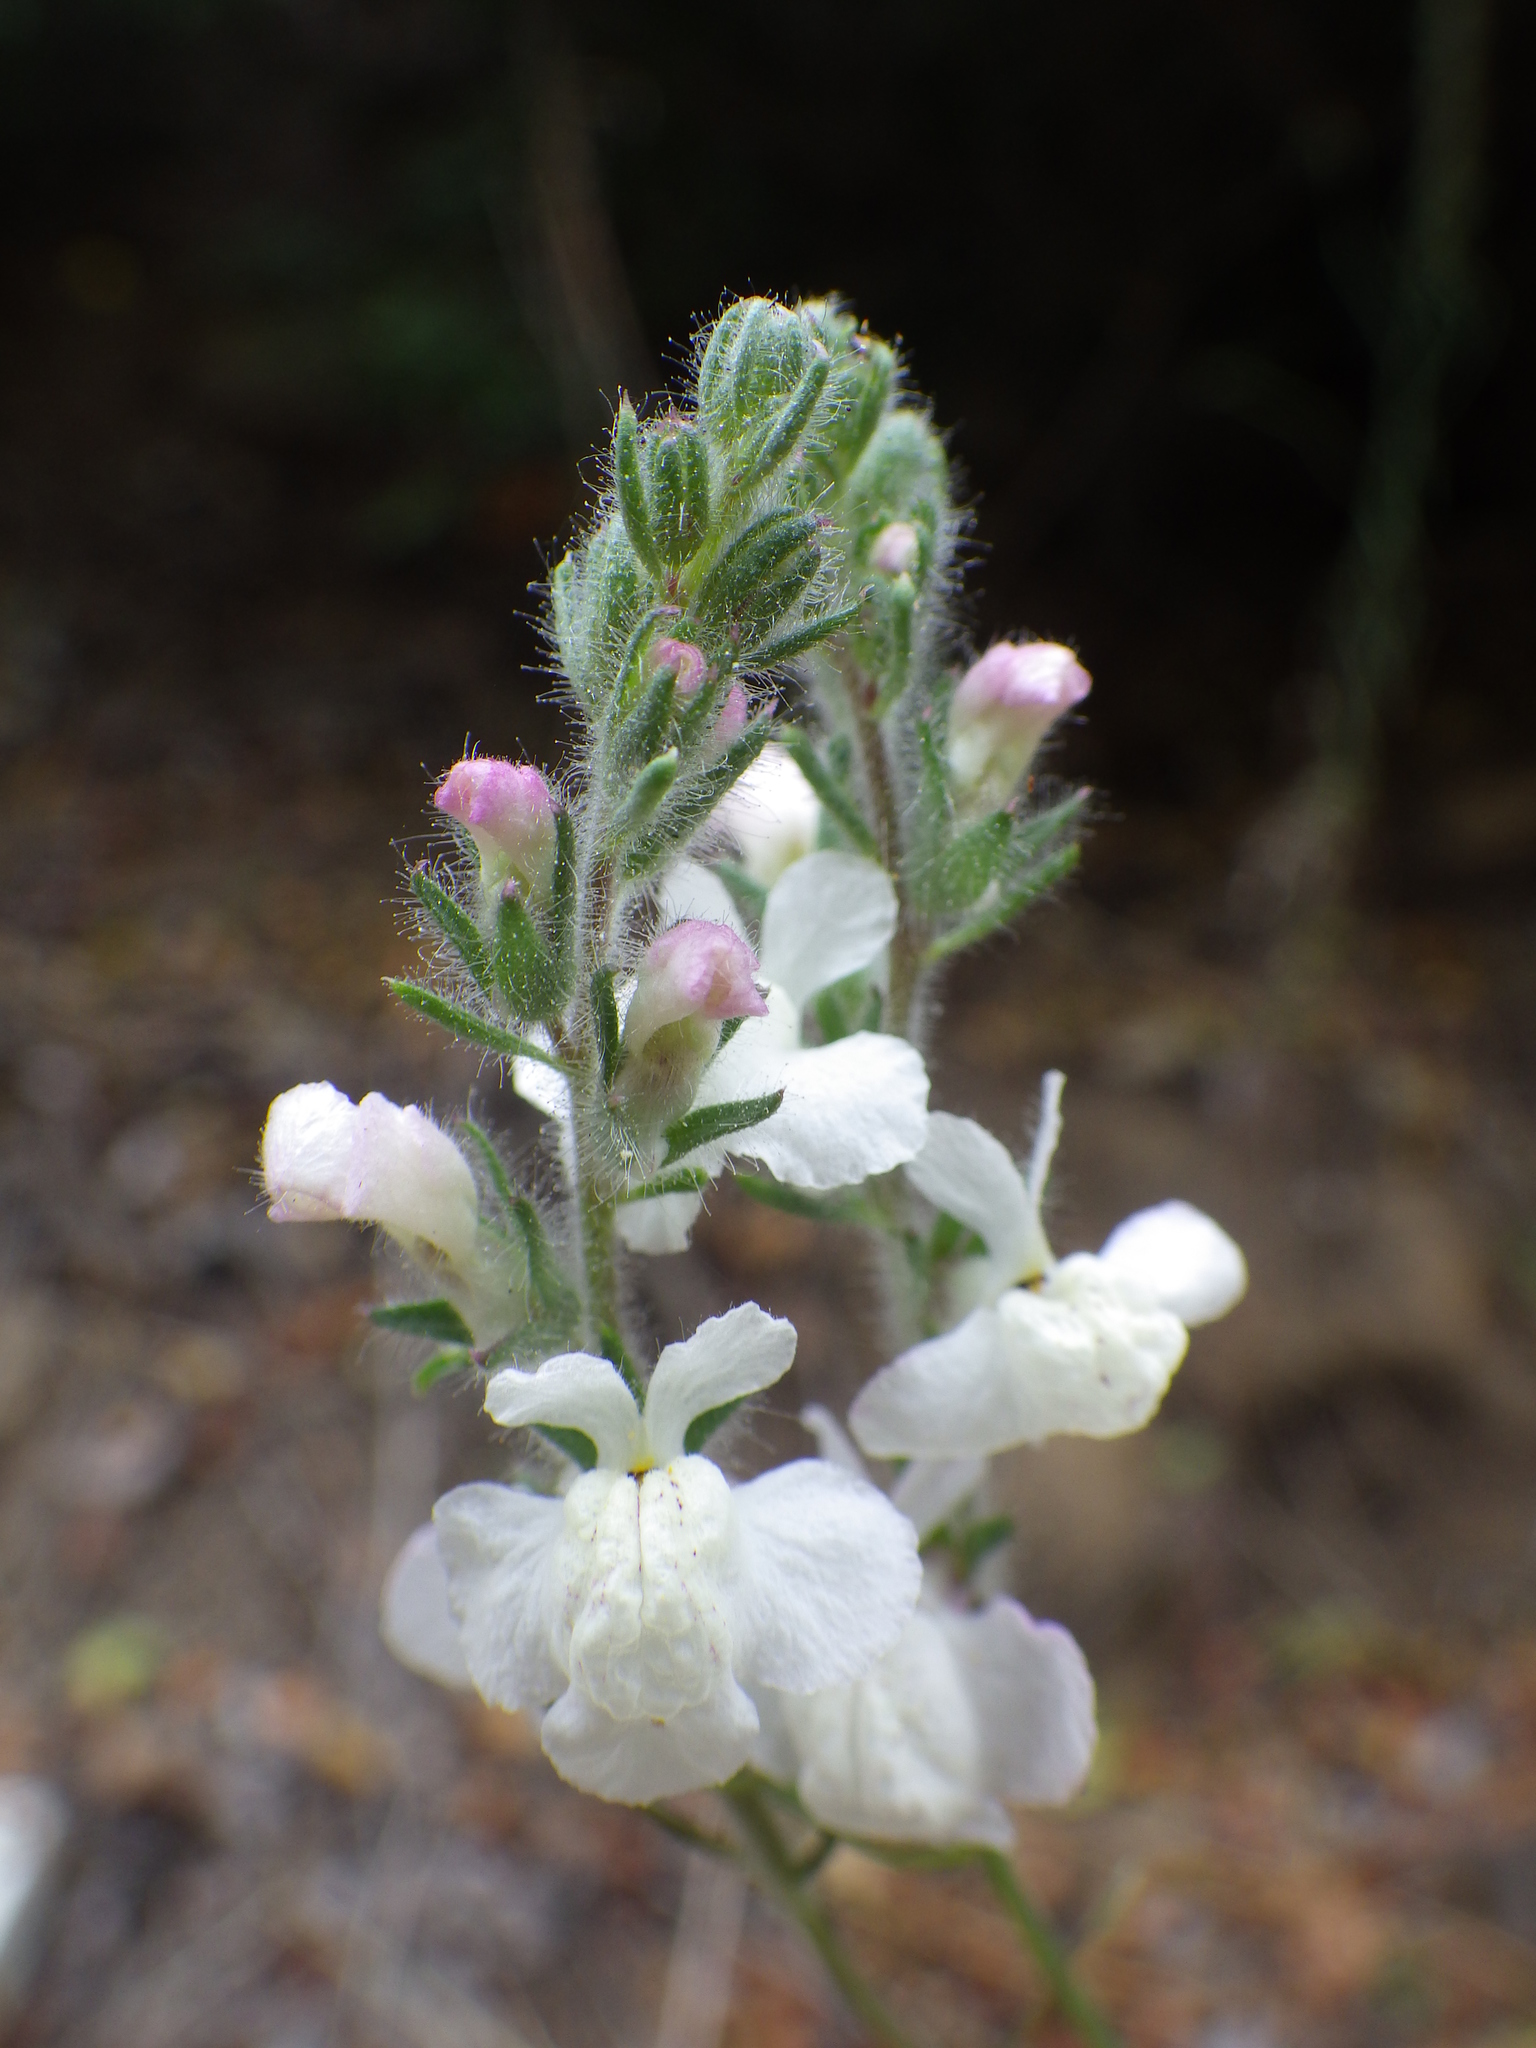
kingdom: Plantae
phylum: Tracheophyta
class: Magnoliopsida
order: Lamiales
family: Plantaginaceae
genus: Sairocarpus
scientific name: Sairocarpus coulterianus
